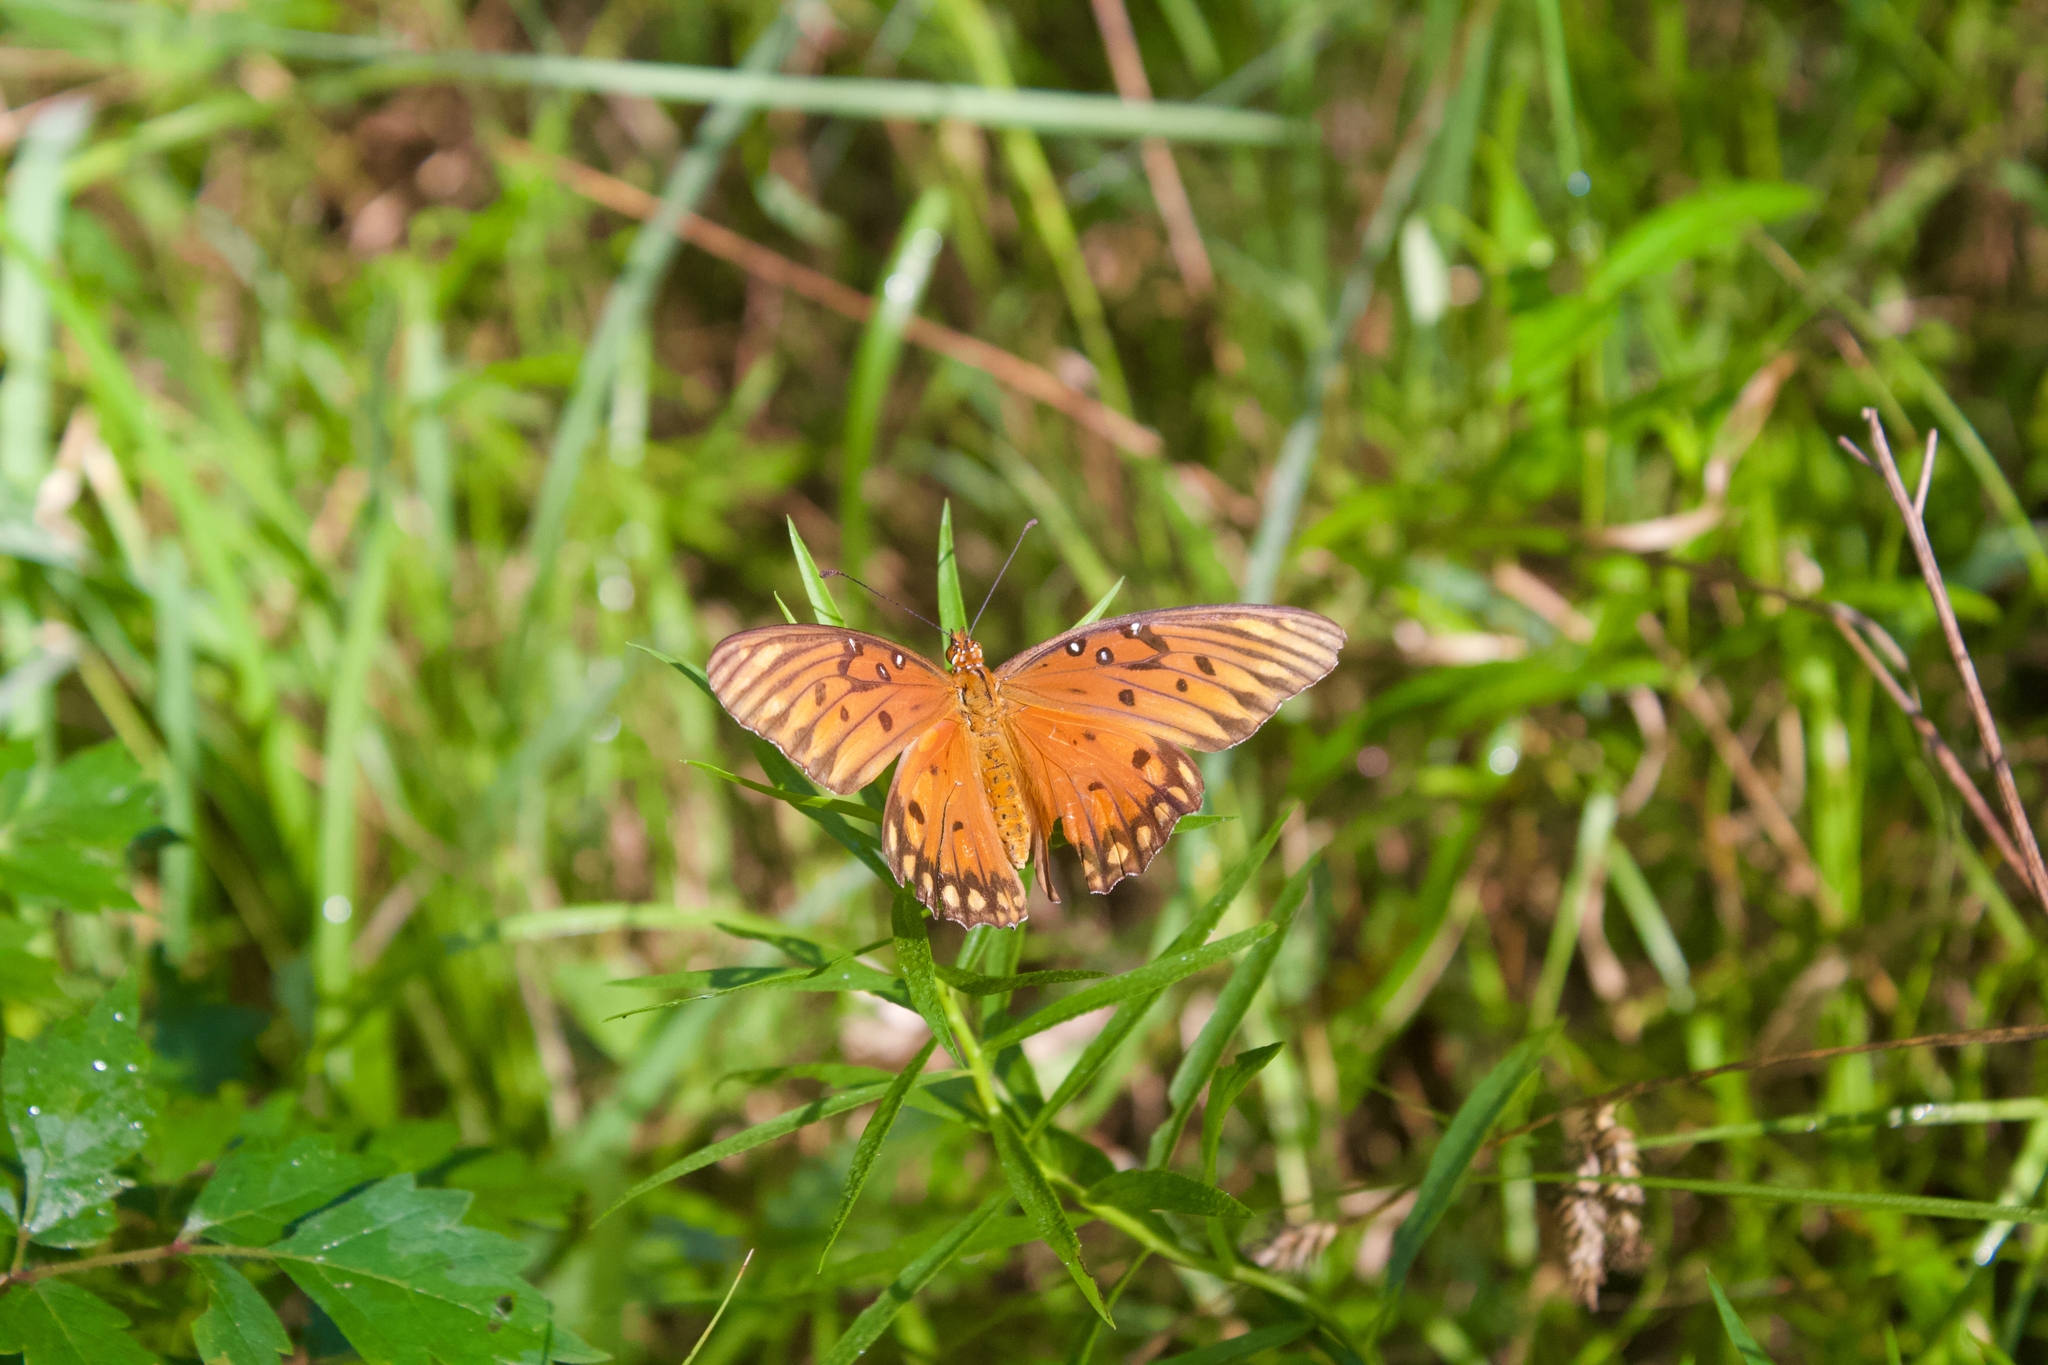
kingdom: Animalia
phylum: Arthropoda
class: Insecta
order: Lepidoptera
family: Nymphalidae
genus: Dione
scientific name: Dione vanillae
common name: Gulf fritillary
